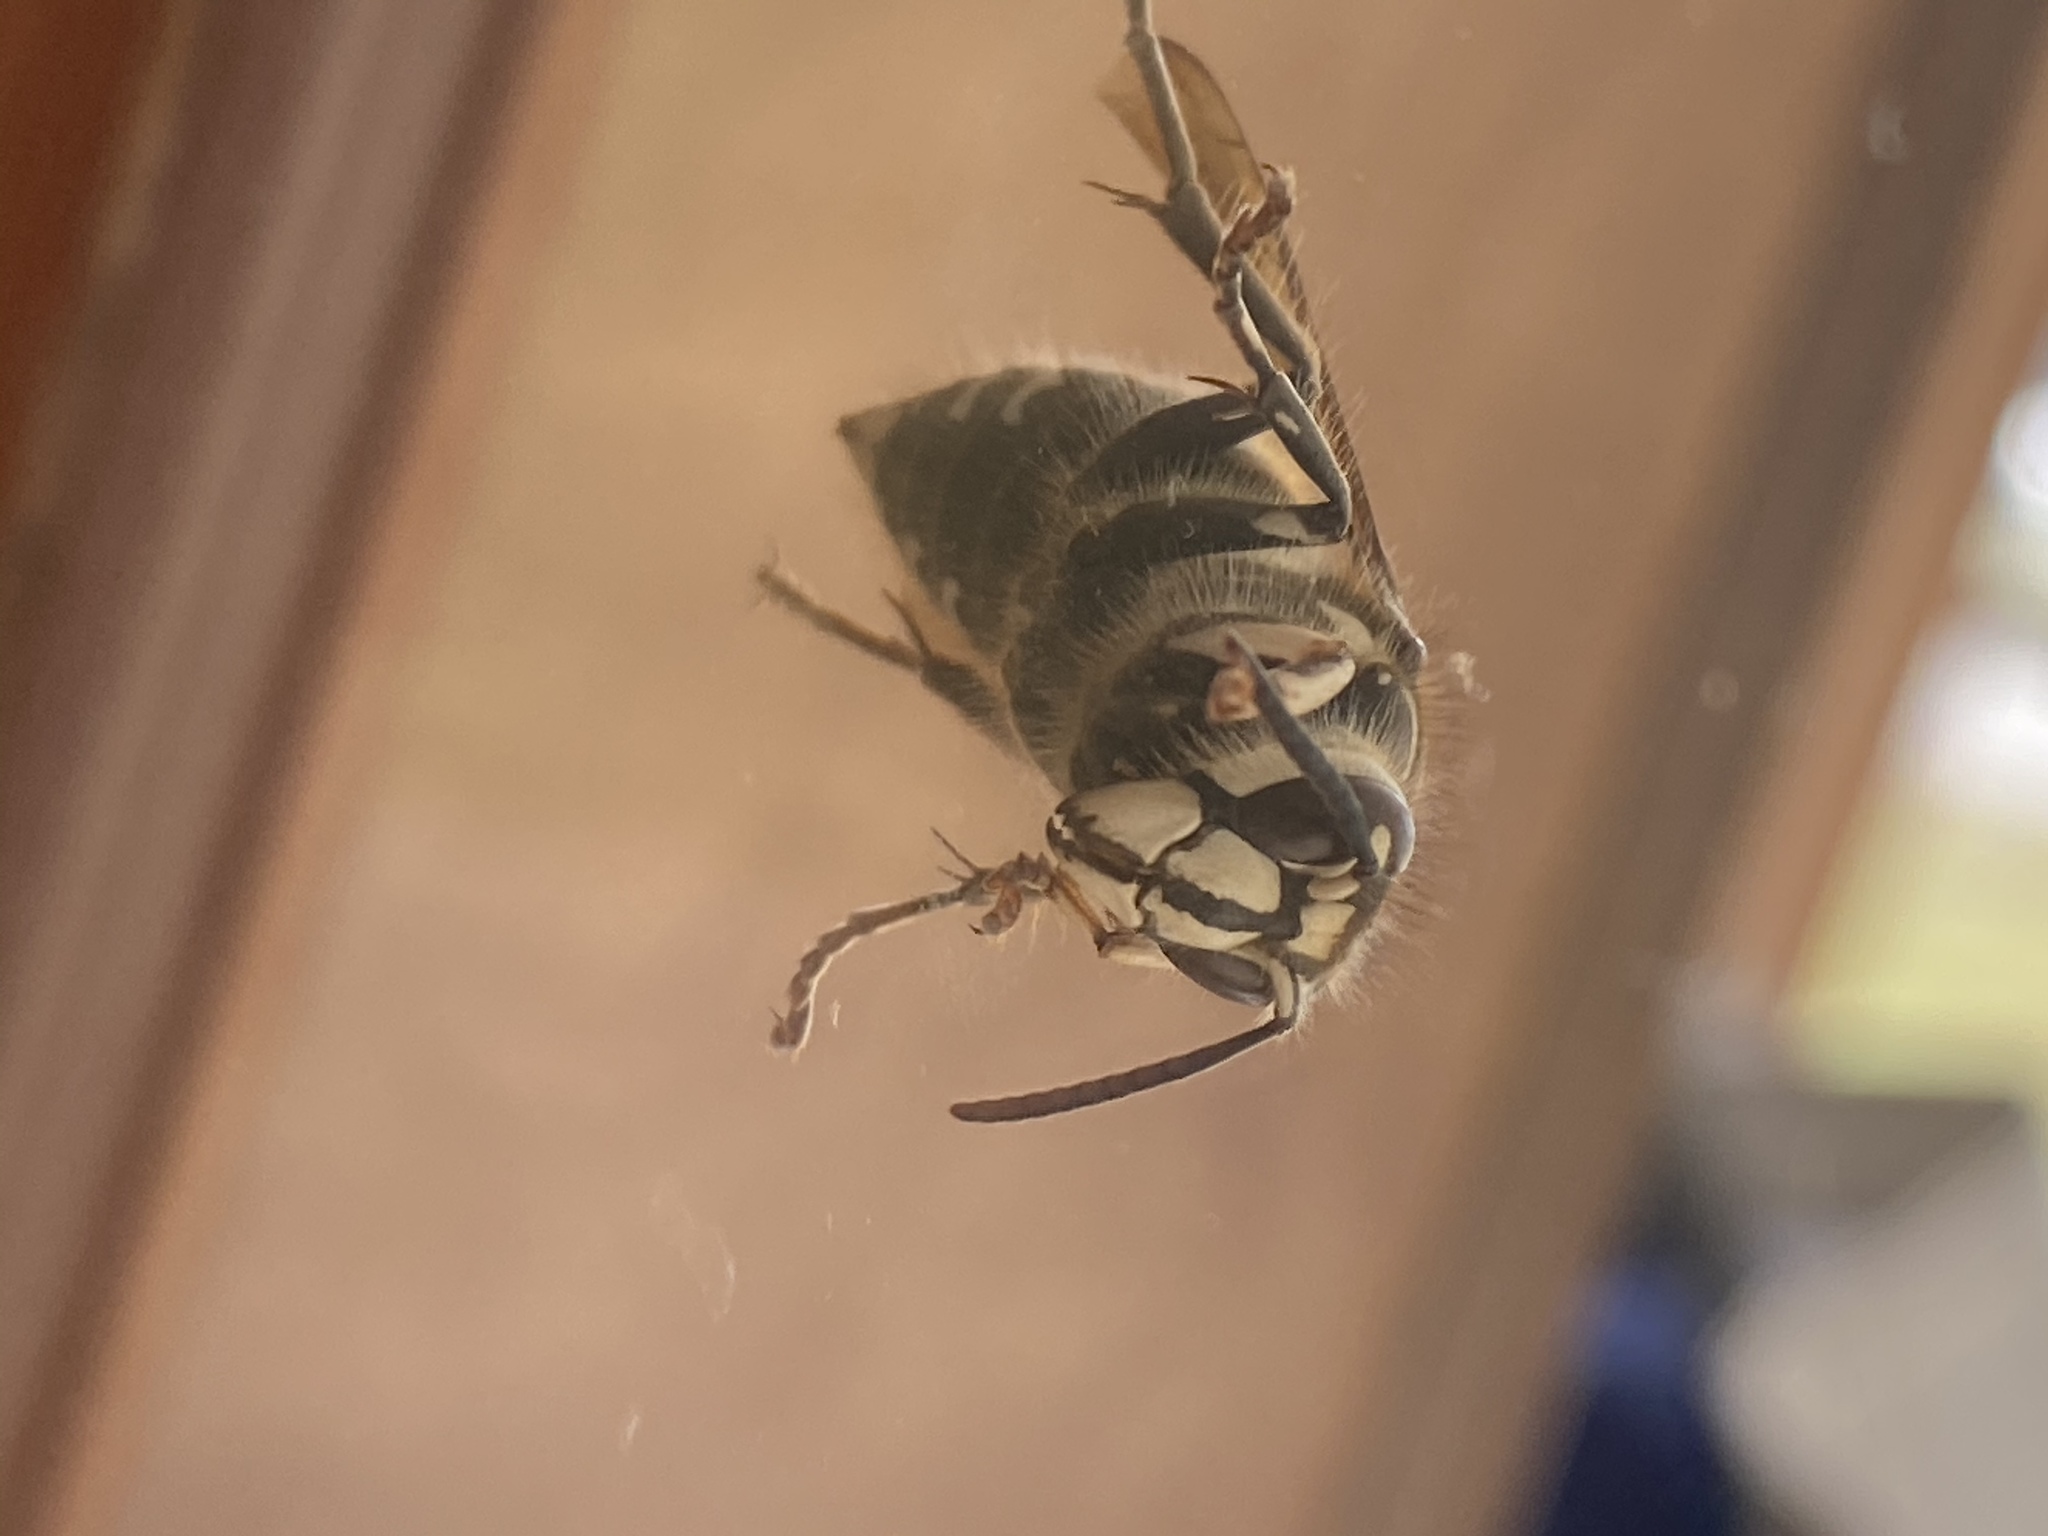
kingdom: Animalia
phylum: Arthropoda
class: Insecta
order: Hymenoptera
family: Vespidae
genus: Dolichovespula
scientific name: Dolichovespula maculata
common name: Bald-faced hornet
